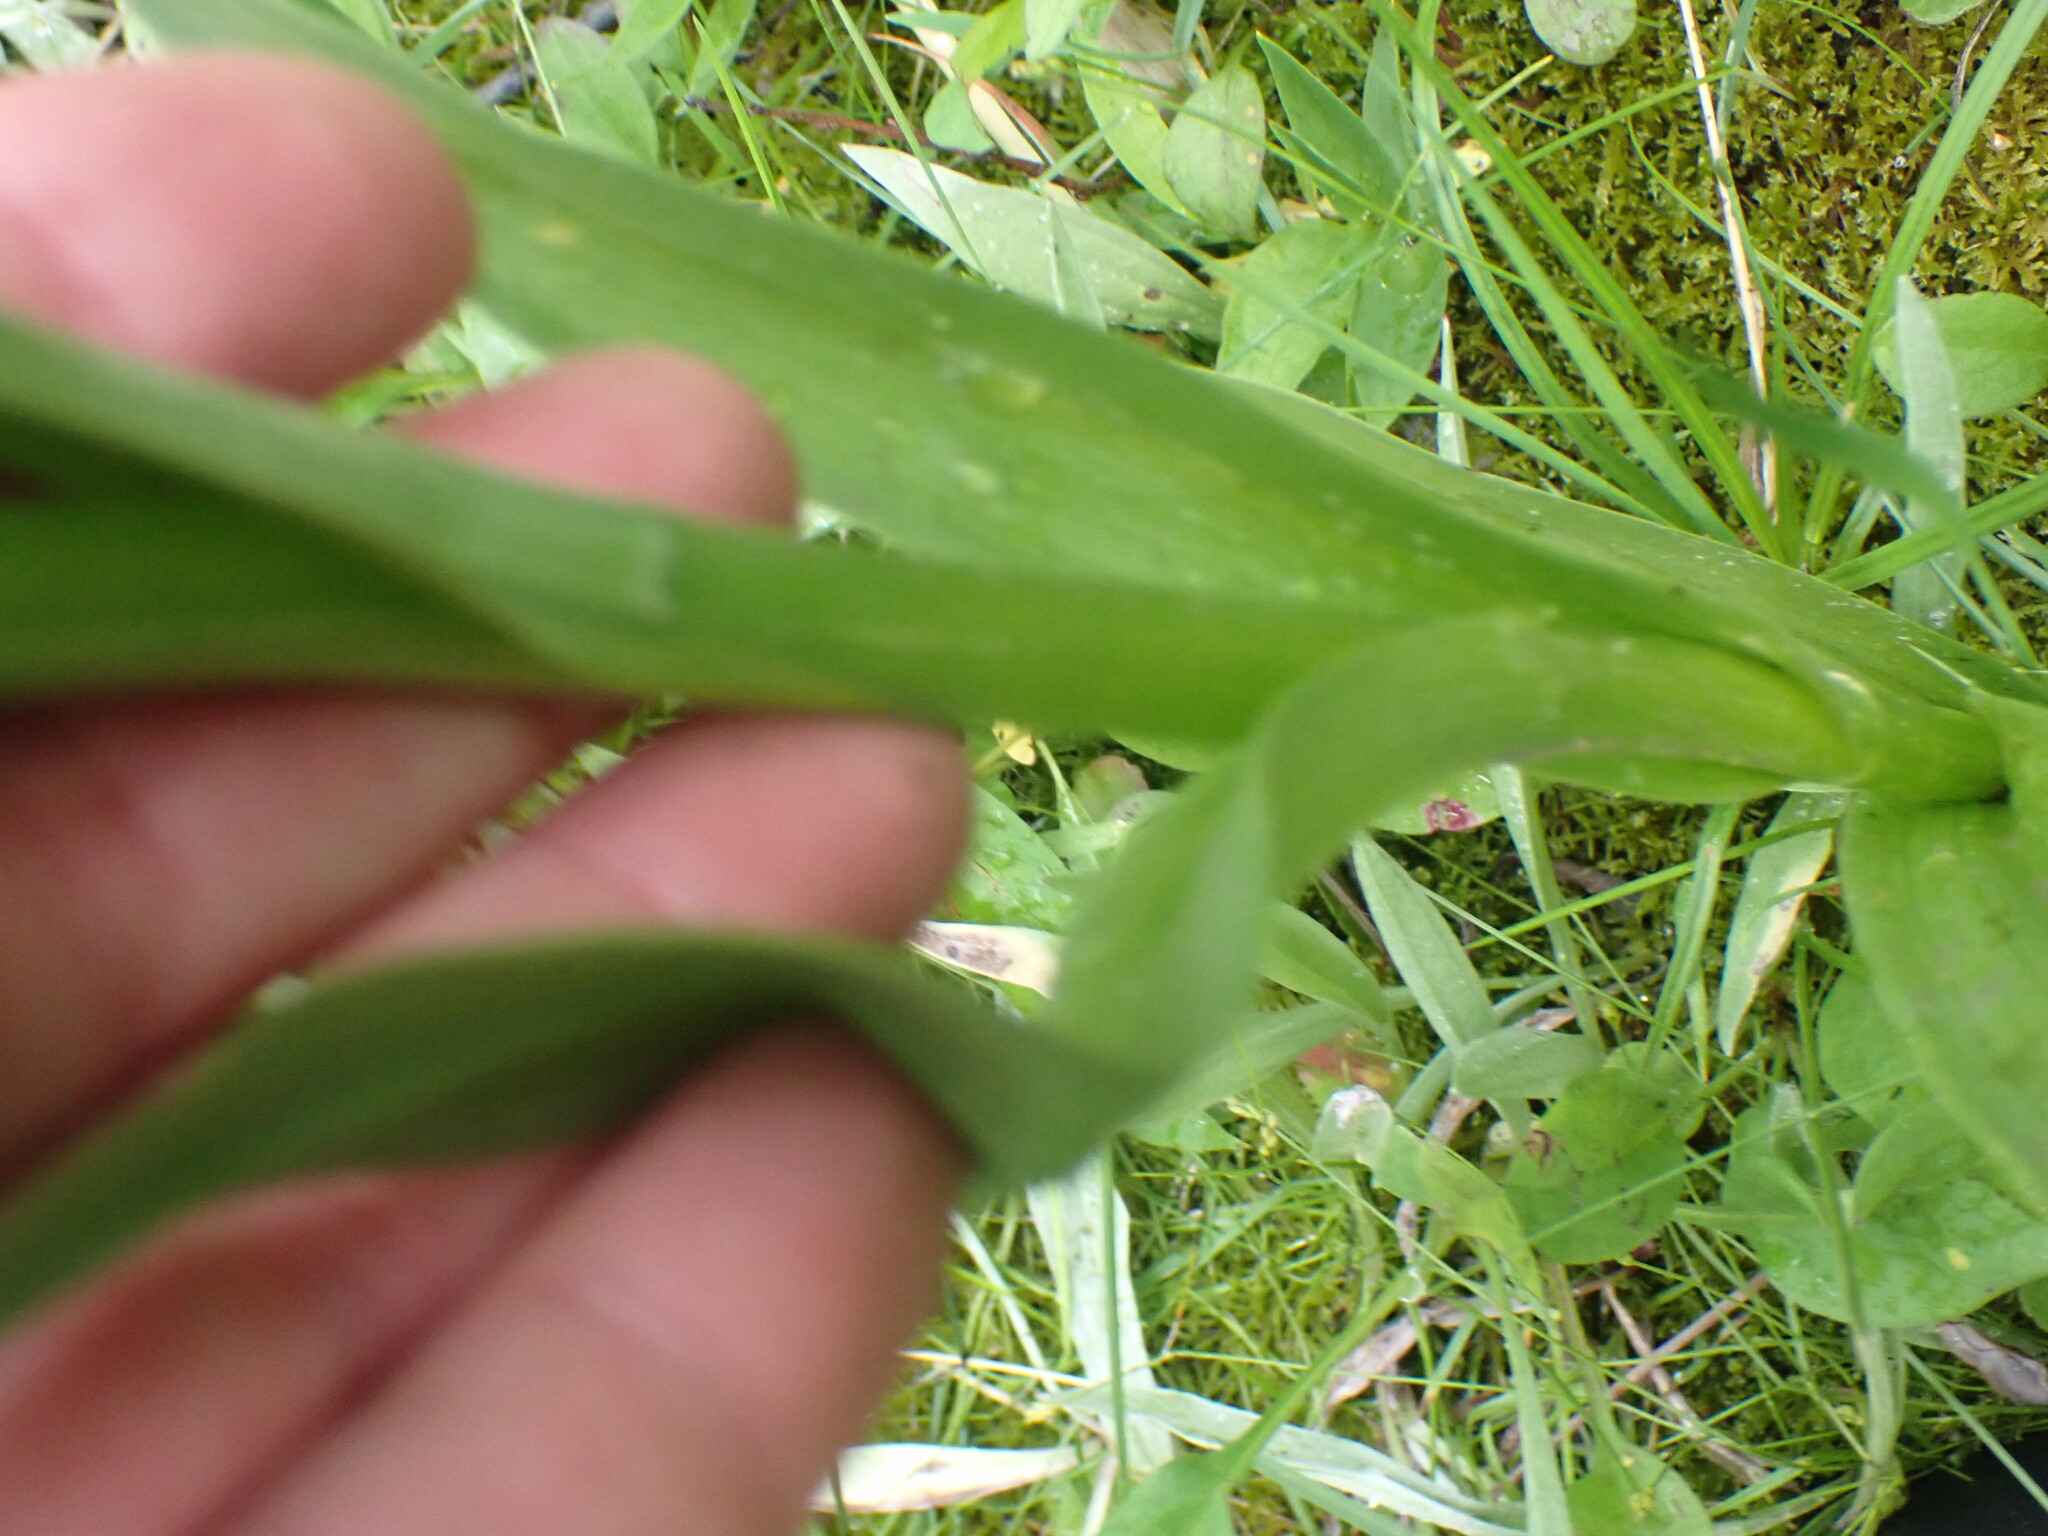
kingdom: Plantae
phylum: Tracheophyta
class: Liliopsida
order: Asparagales
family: Orchidaceae
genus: Platanthera
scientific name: Platanthera huronensis
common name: Fragrant green orchid
